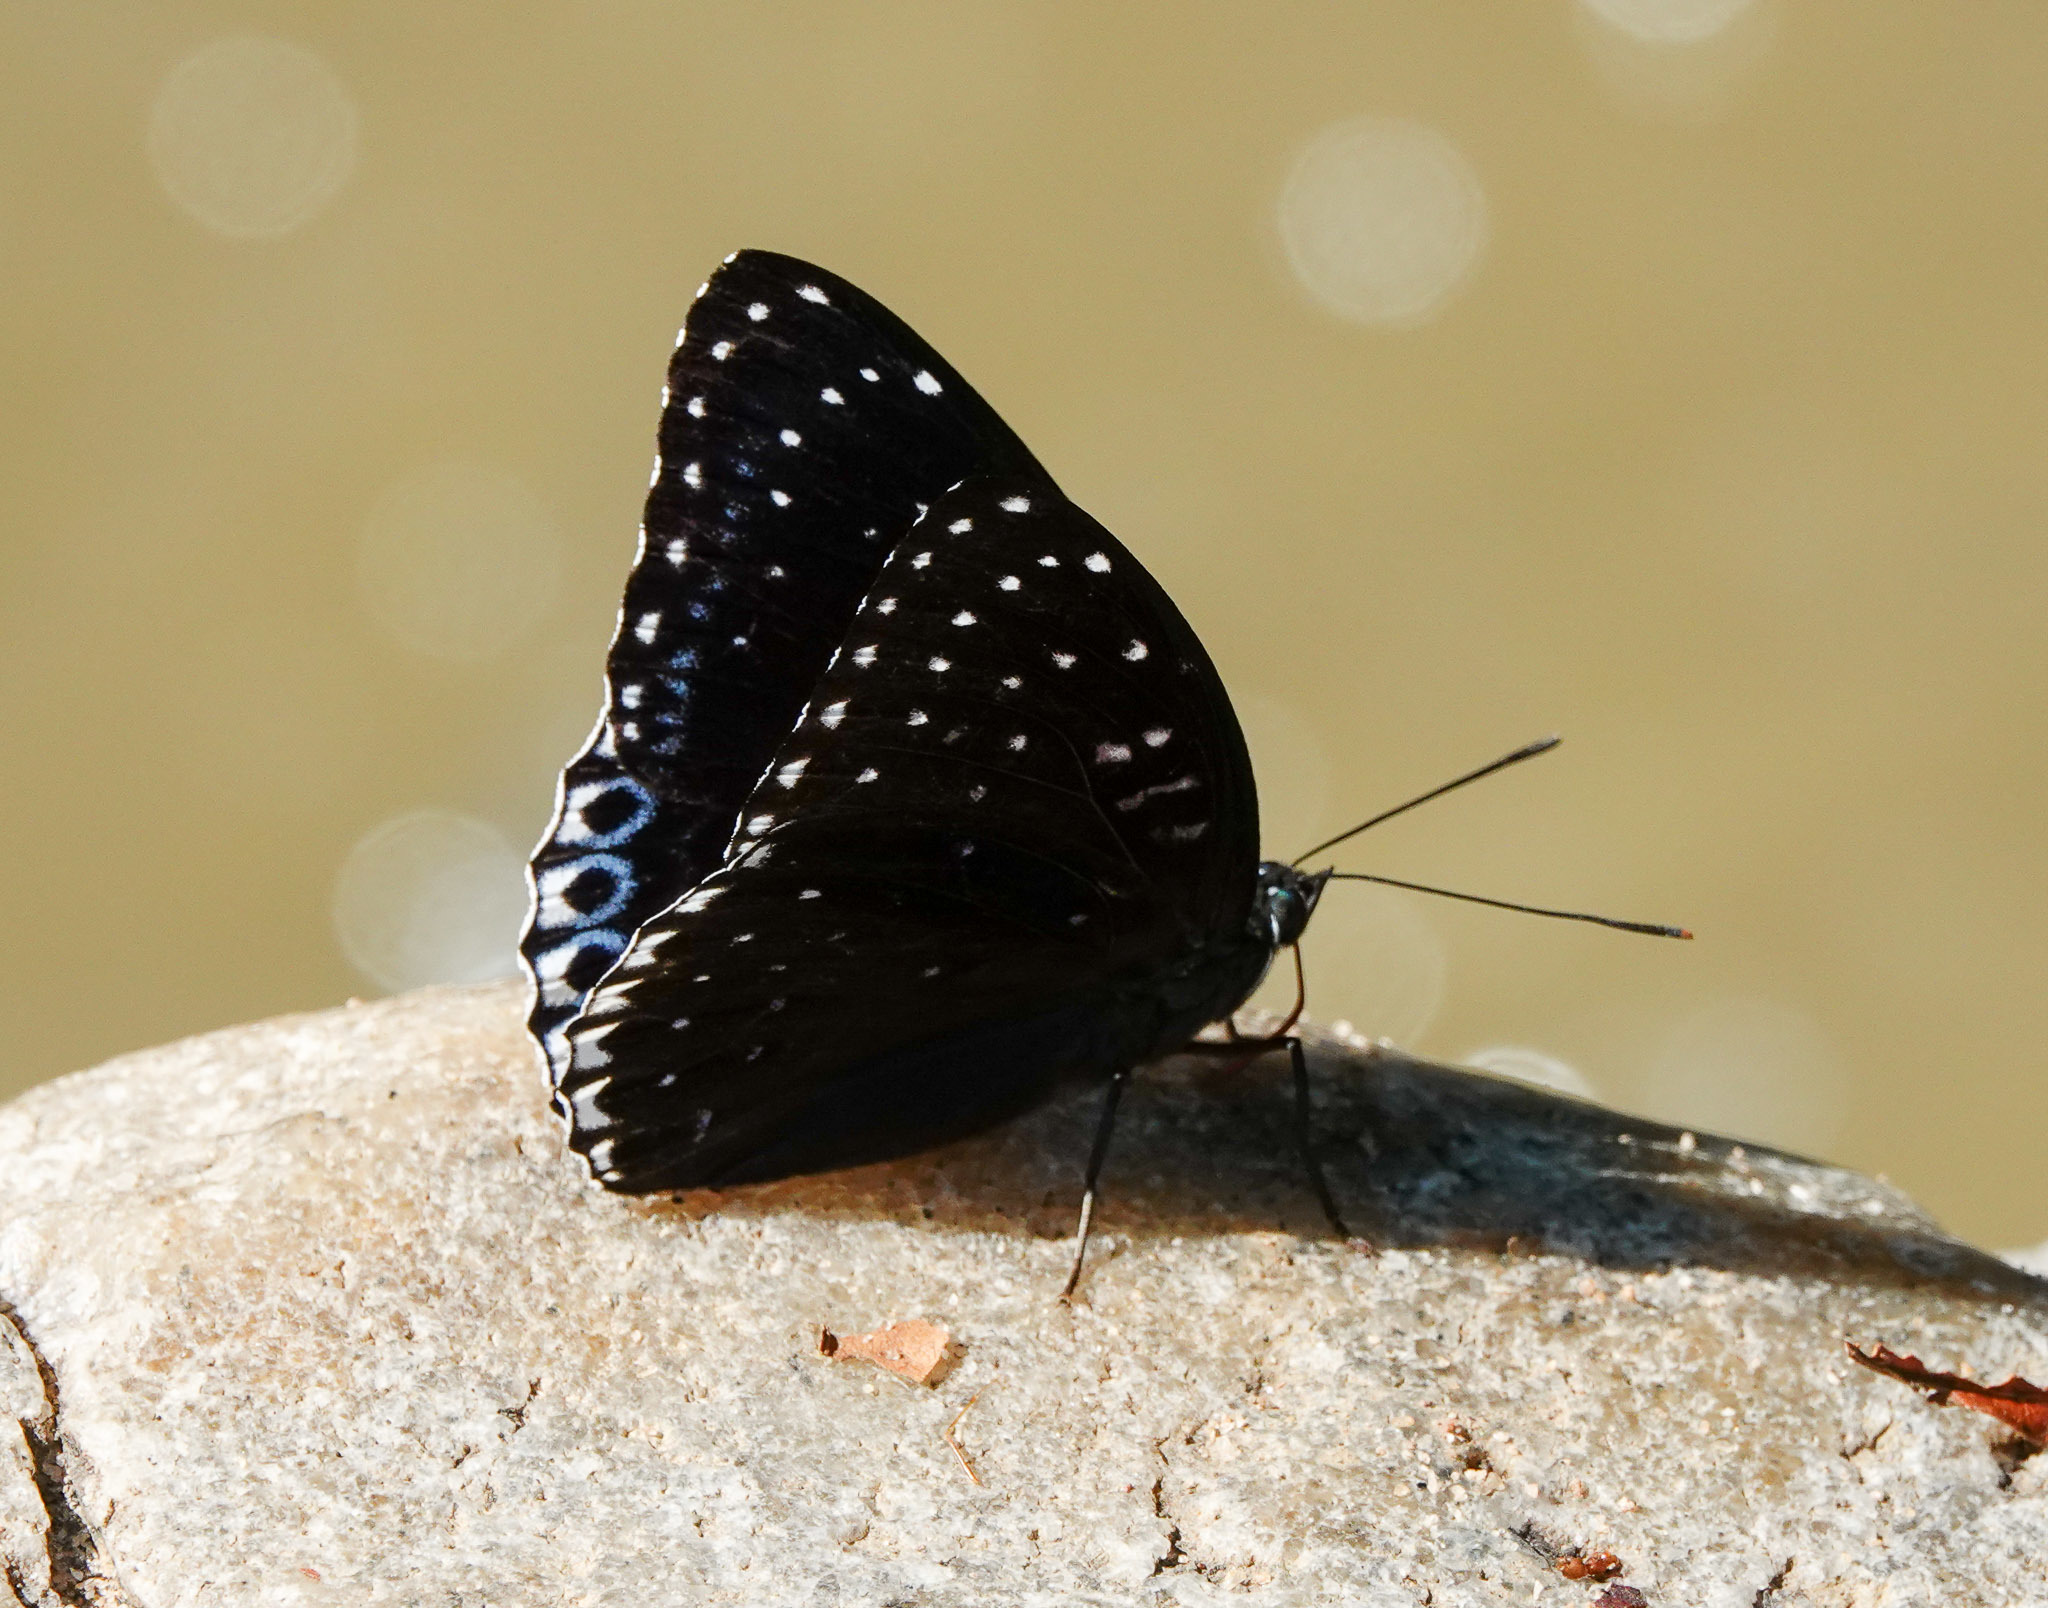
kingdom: Animalia
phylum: Arthropoda
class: Insecta
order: Lepidoptera
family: Nymphalidae
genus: Stibochiona
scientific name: Stibochiona nicea
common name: Popinjay
